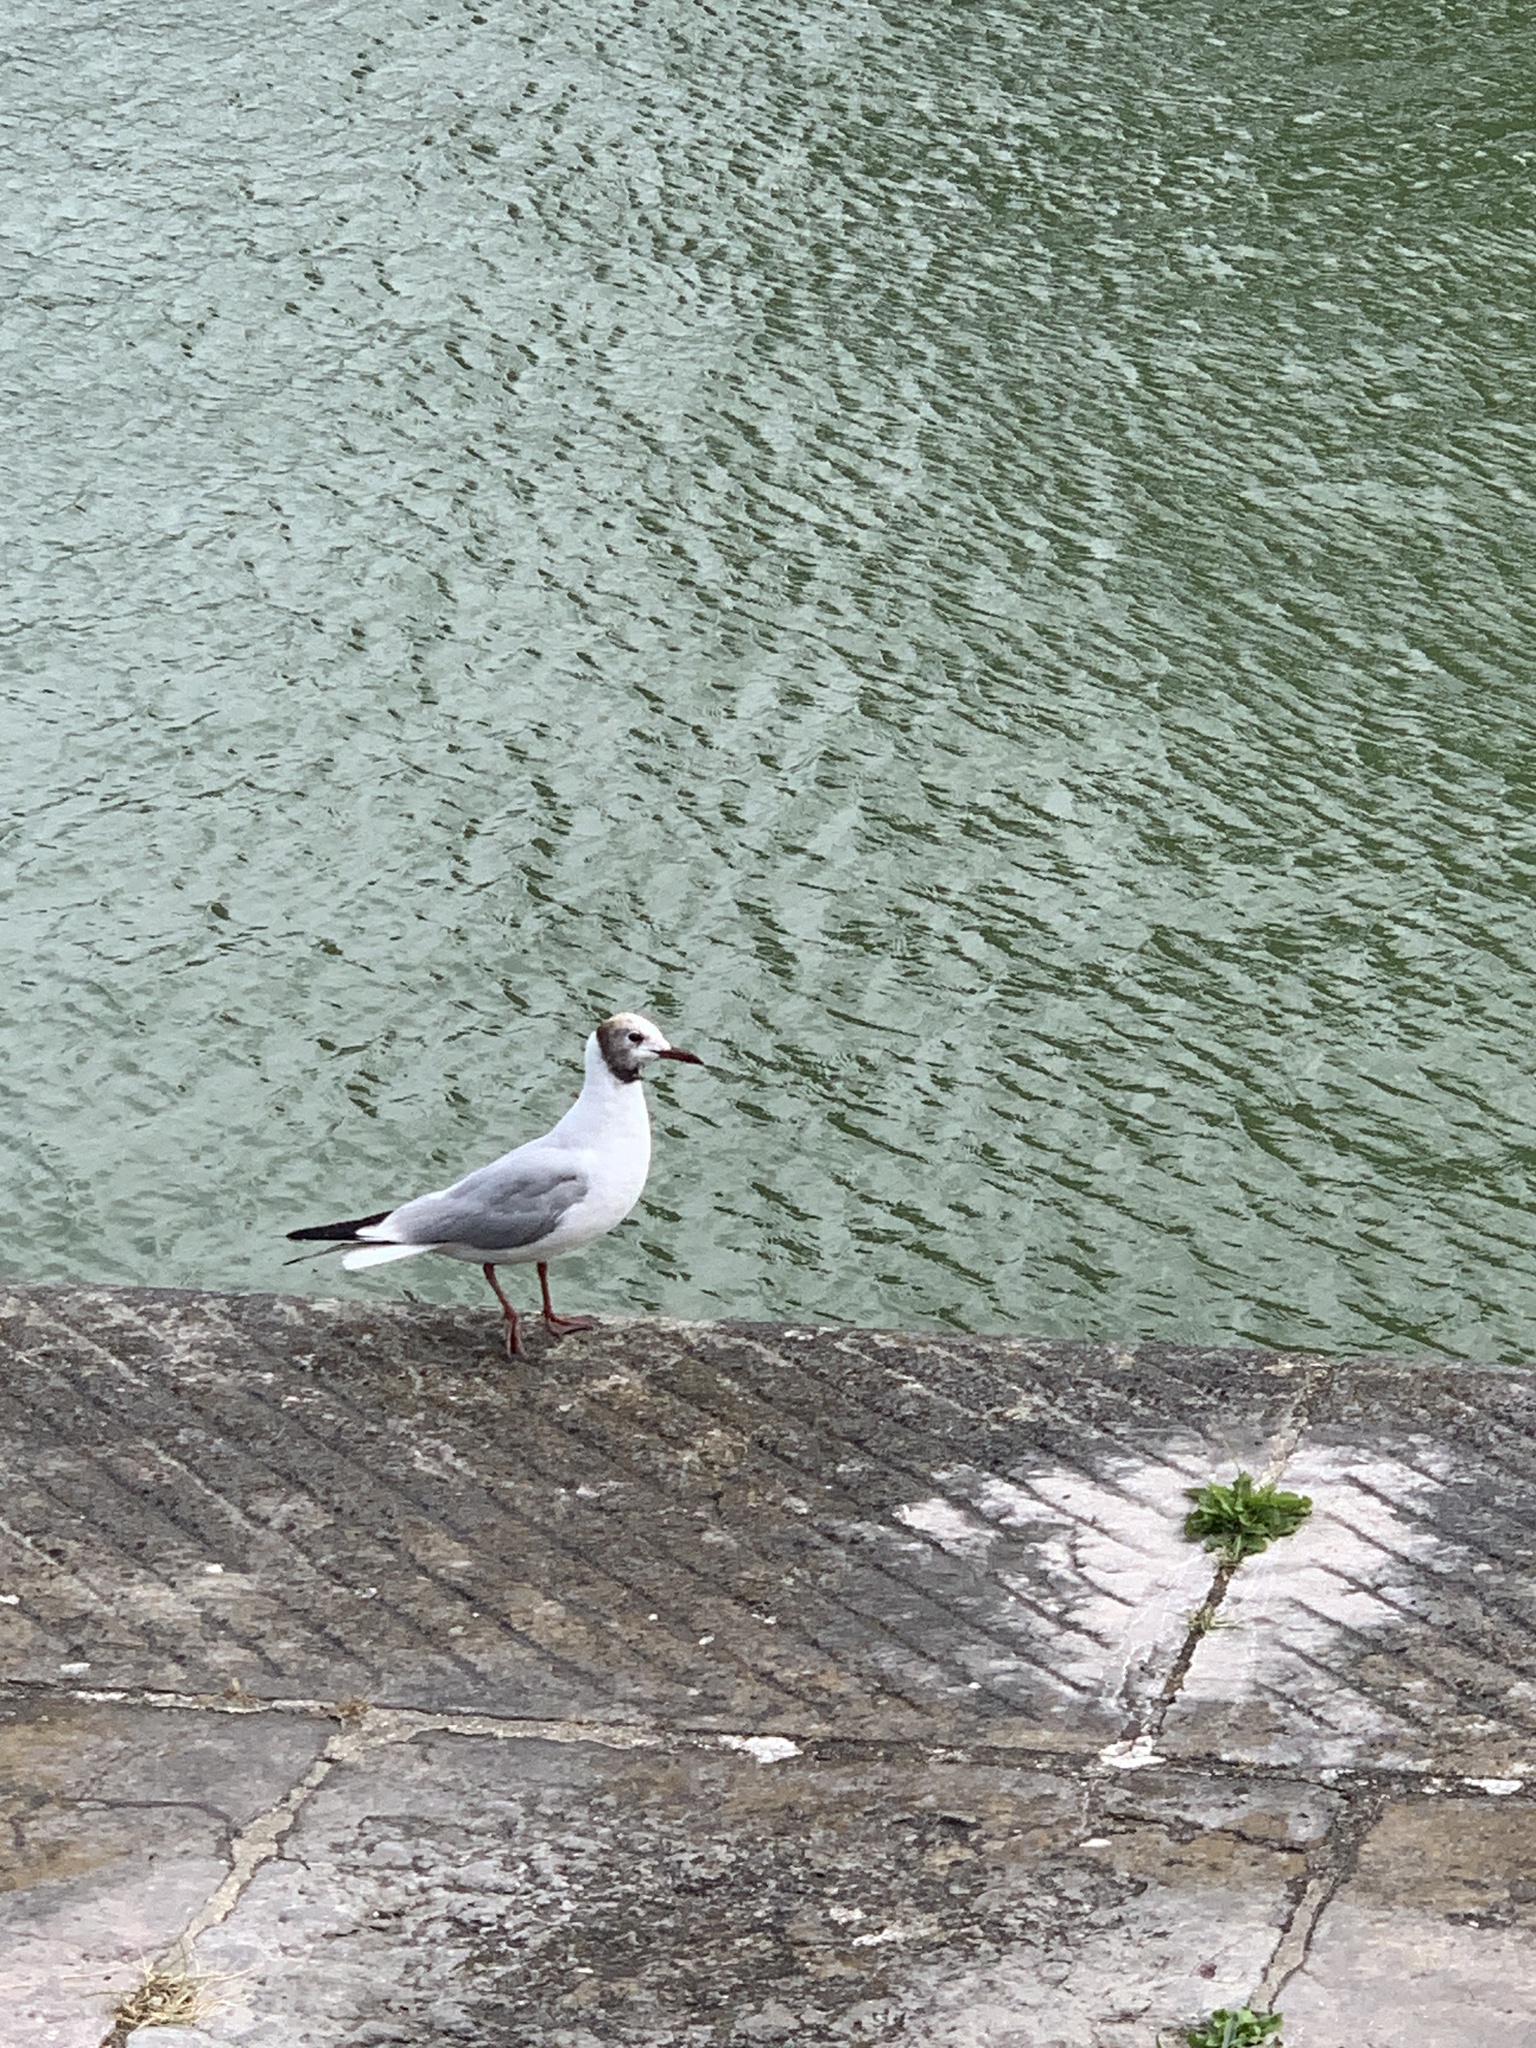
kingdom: Animalia
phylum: Chordata
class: Aves
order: Charadriiformes
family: Laridae
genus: Chroicocephalus
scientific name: Chroicocephalus ridibundus
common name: Black-headed gull
